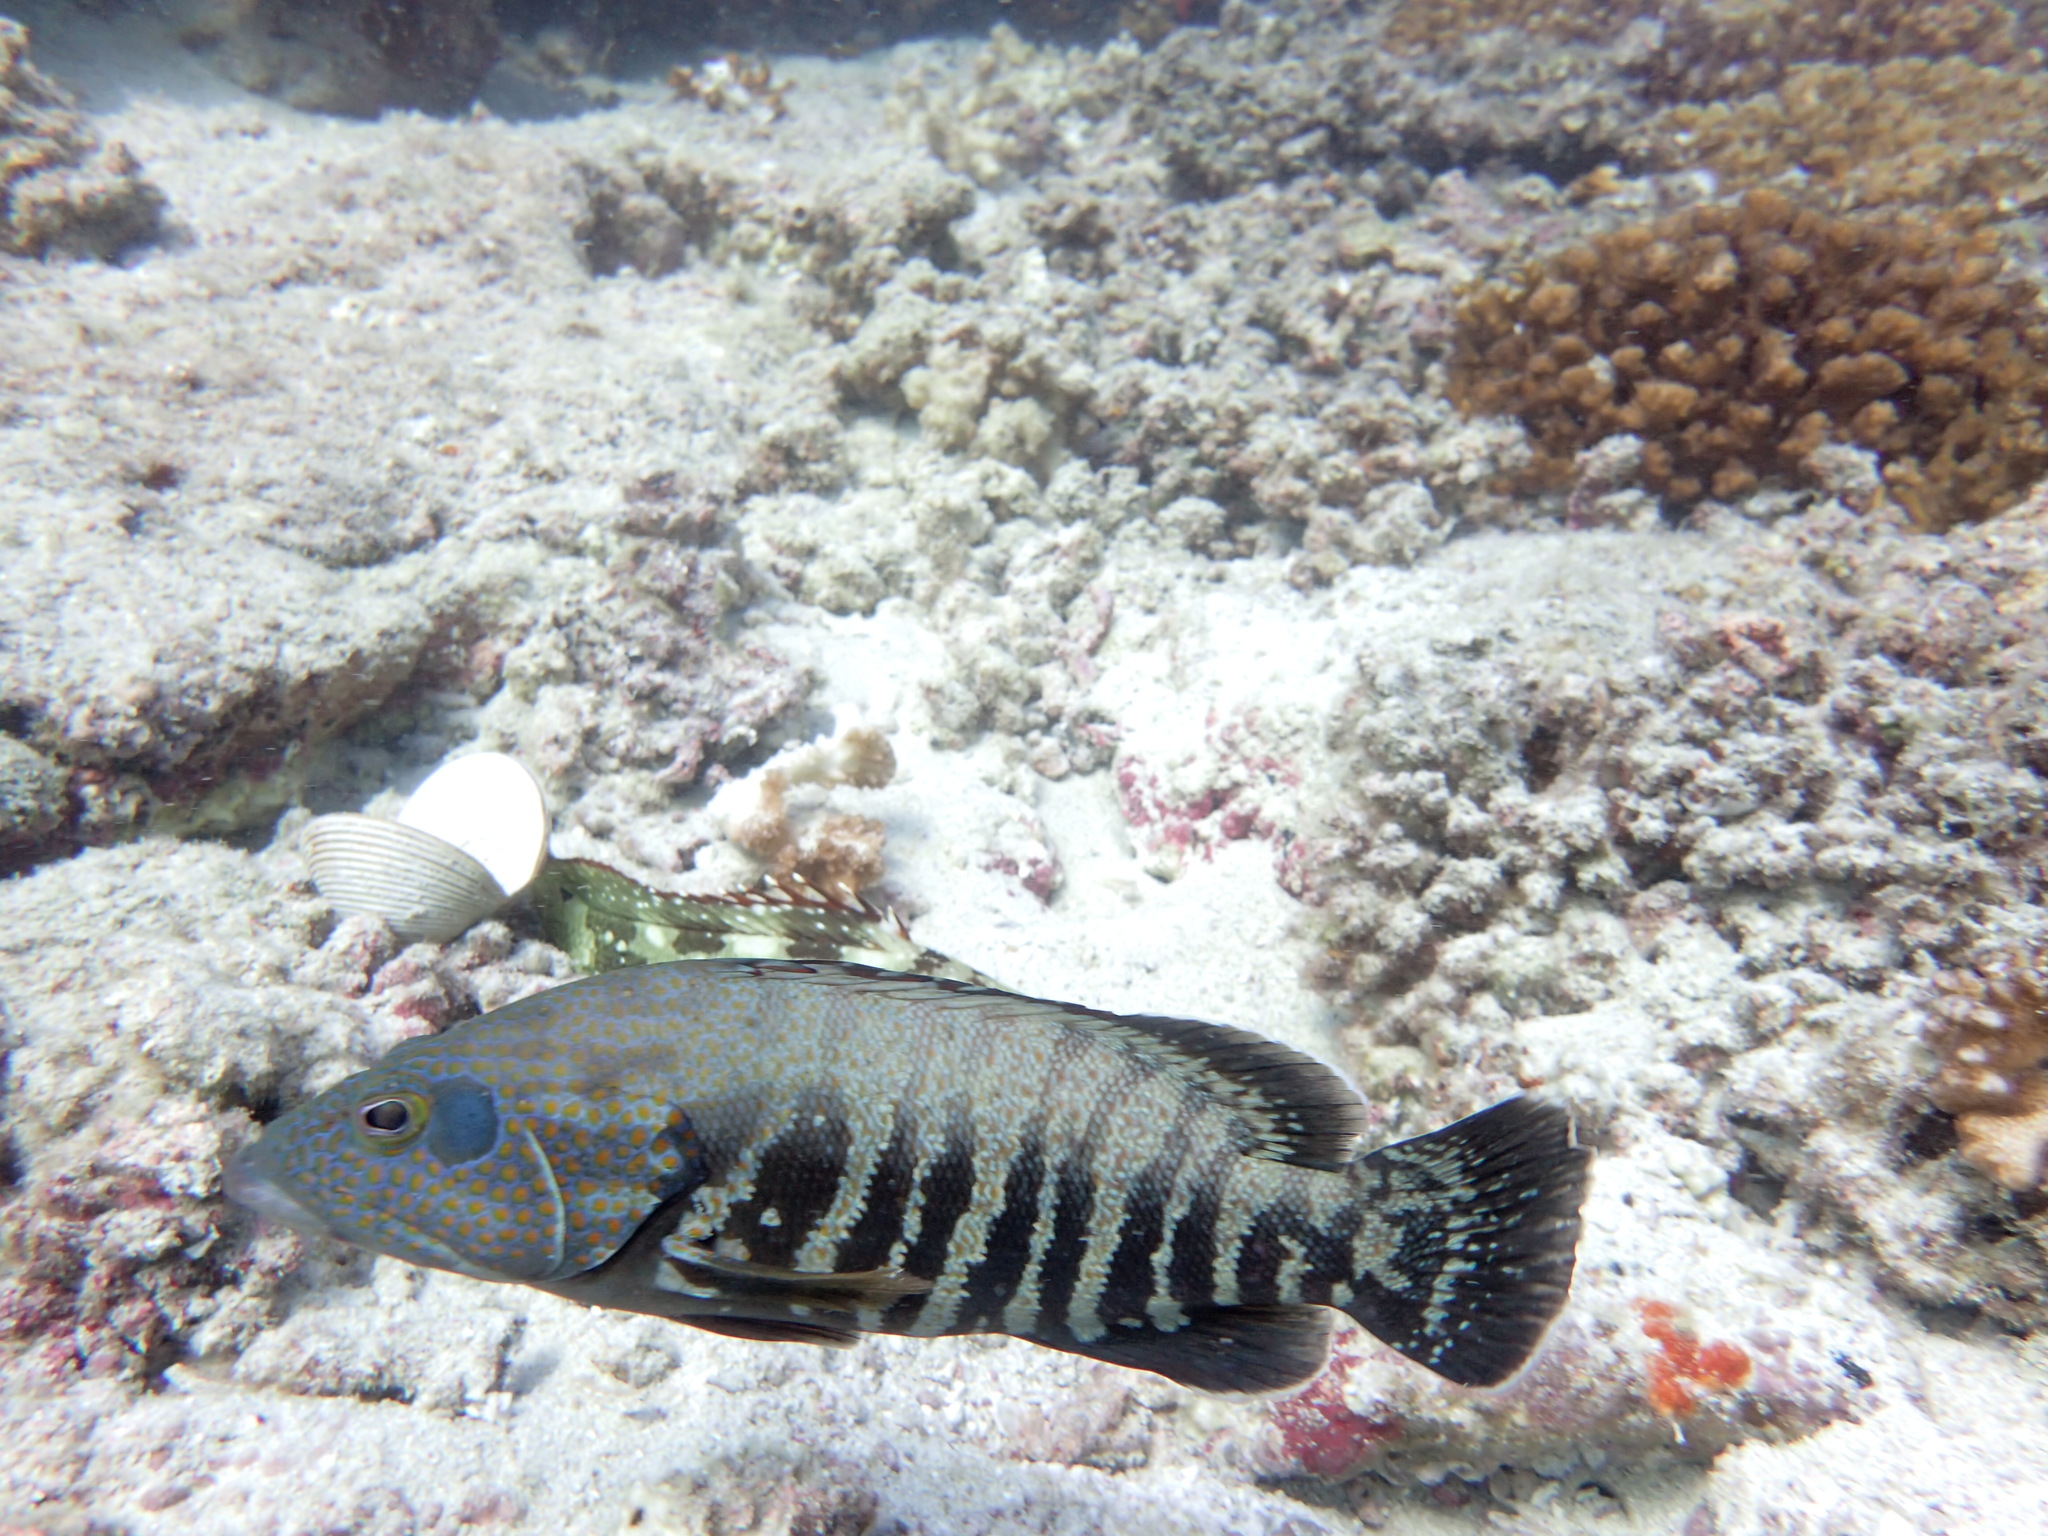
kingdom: Animalia
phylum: Chordata
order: Perciformes
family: Serranidae
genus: Cephalopholis
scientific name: Cephalopholis panamensis
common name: Pacific graysby
